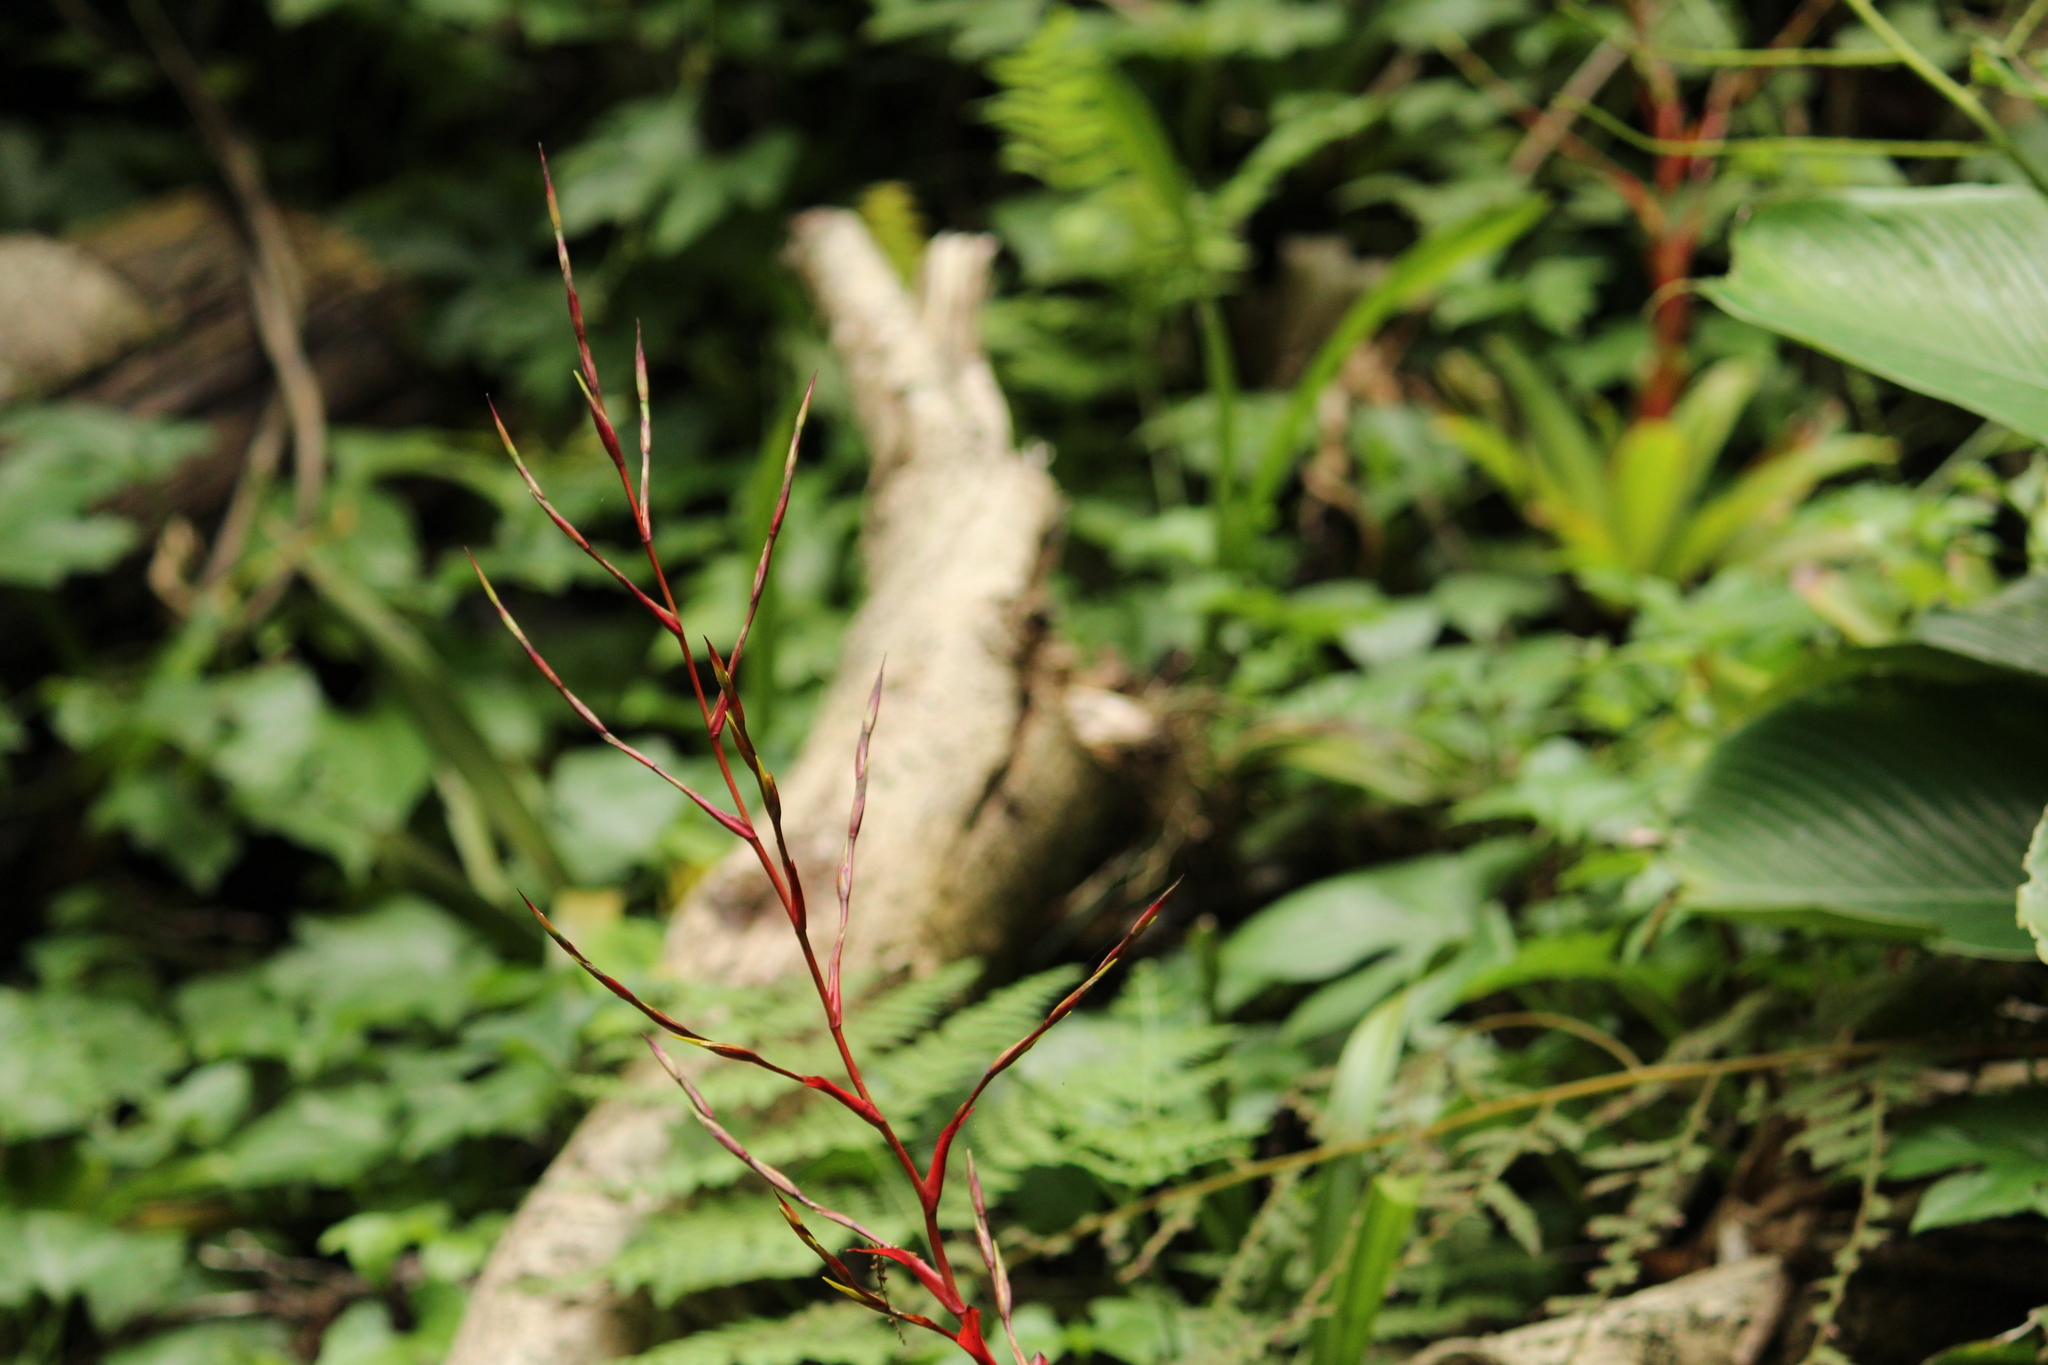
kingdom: Plantae
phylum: Tracheophyta
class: Liliopsida
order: Poales
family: Bromeliaceae
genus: Vriesea
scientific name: Vriesea vagans
